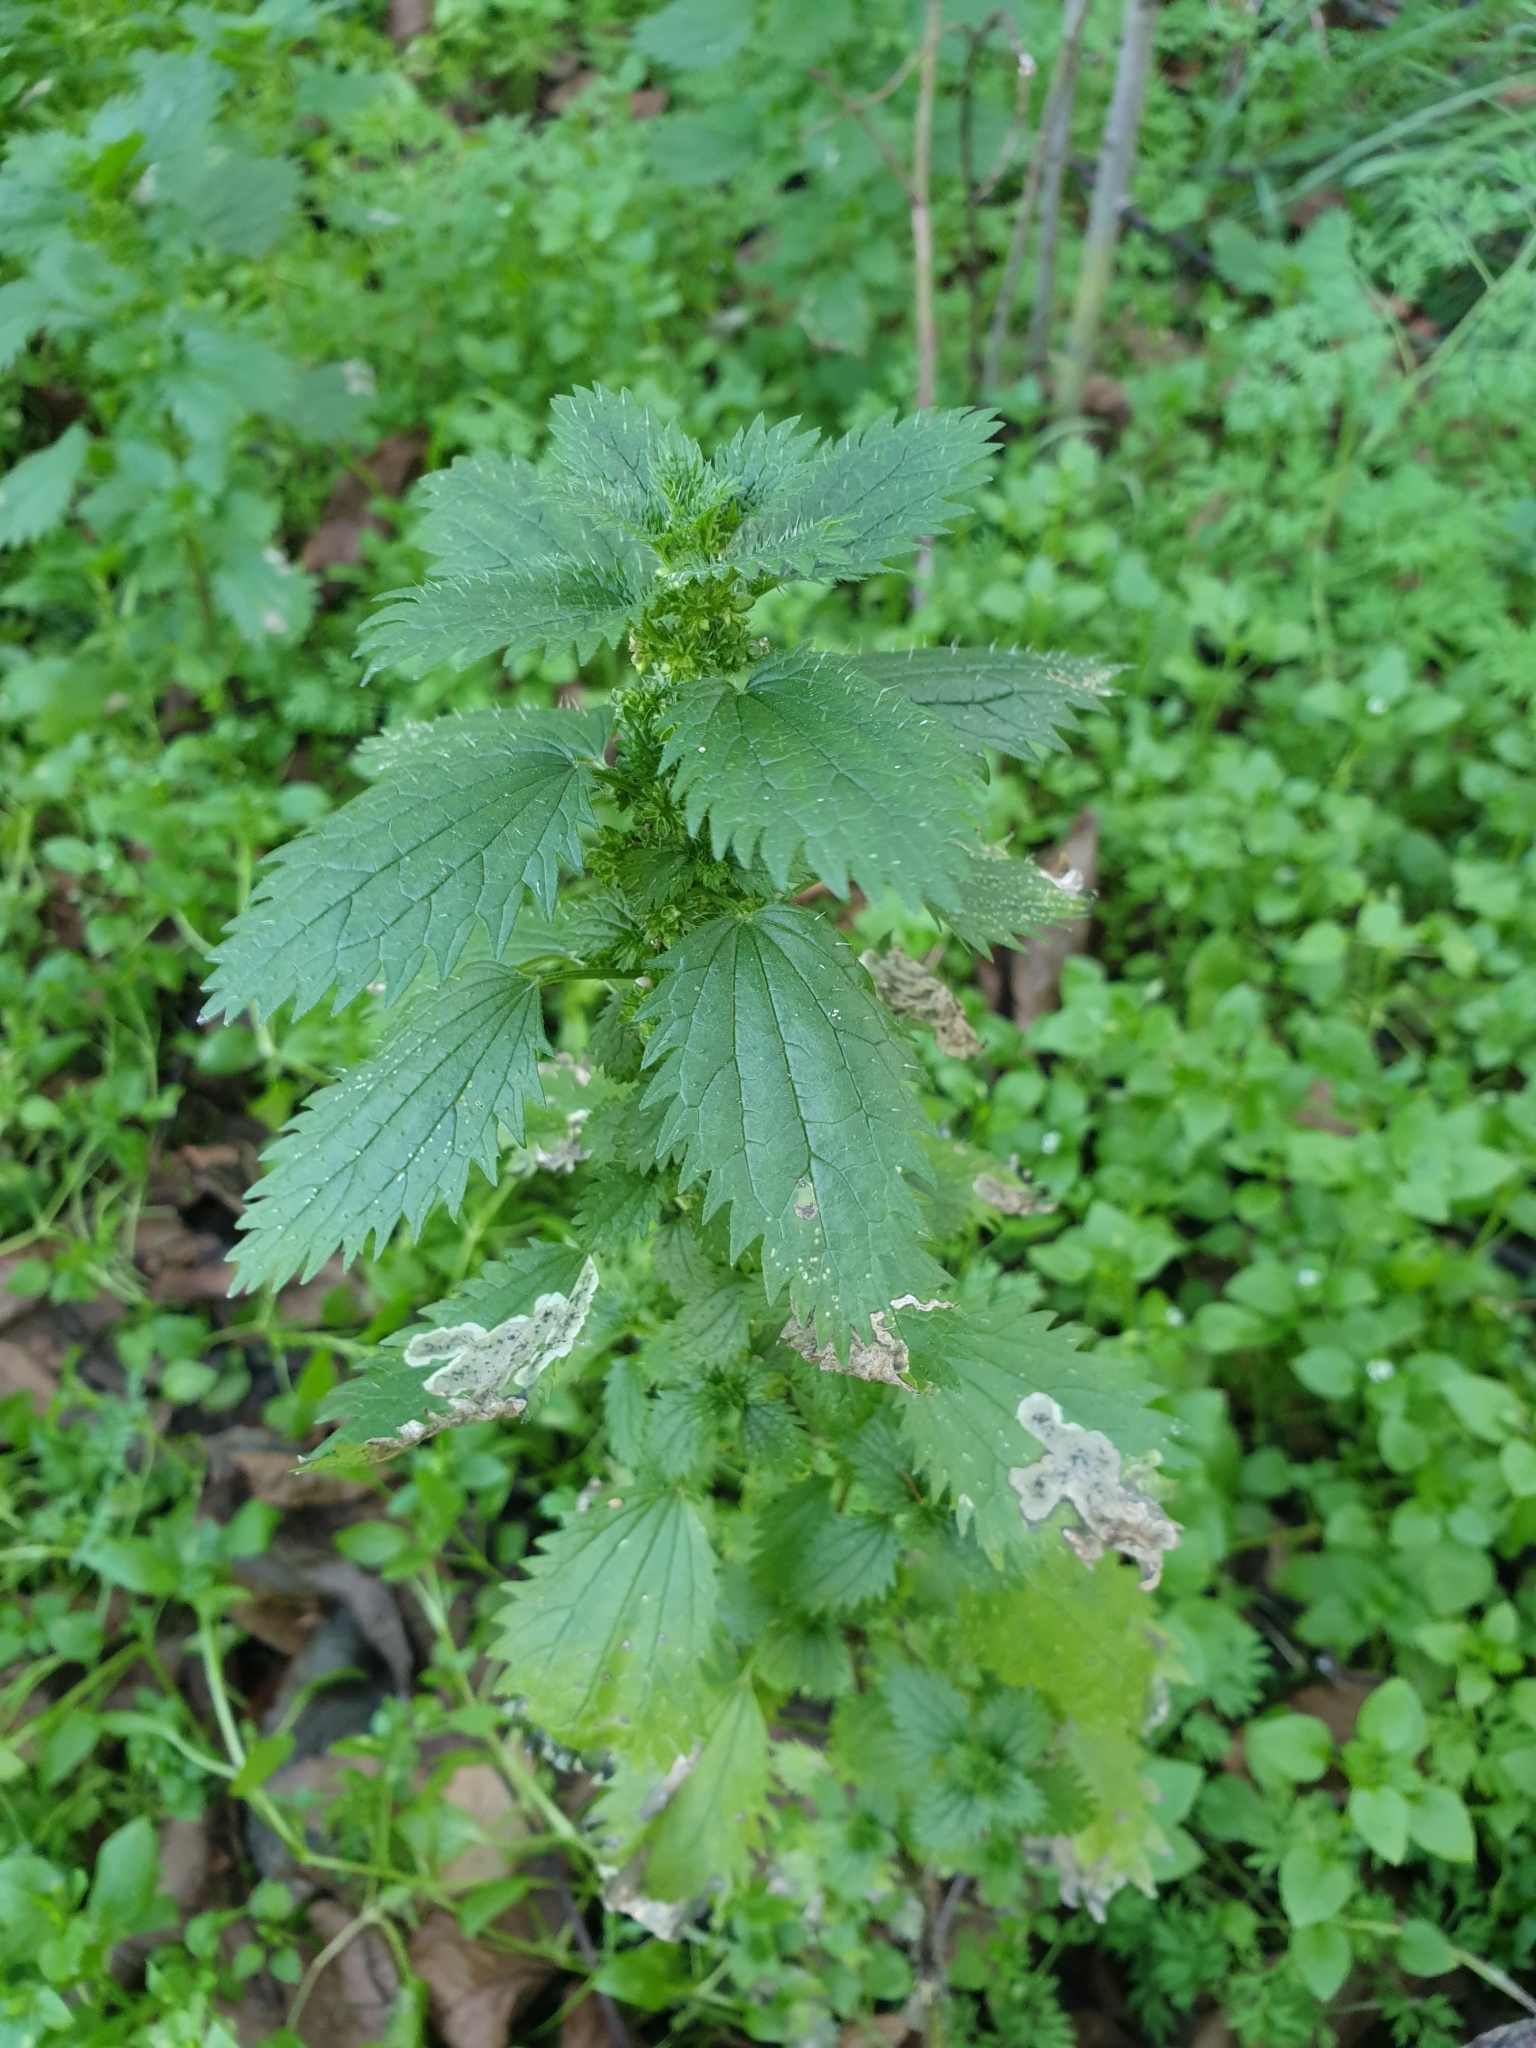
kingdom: Plantae
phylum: Tracheophyta
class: Magnoliopsida
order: Rosales
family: Urticaceae
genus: Urtica
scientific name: Urtica urens
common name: Dwarf nettle
